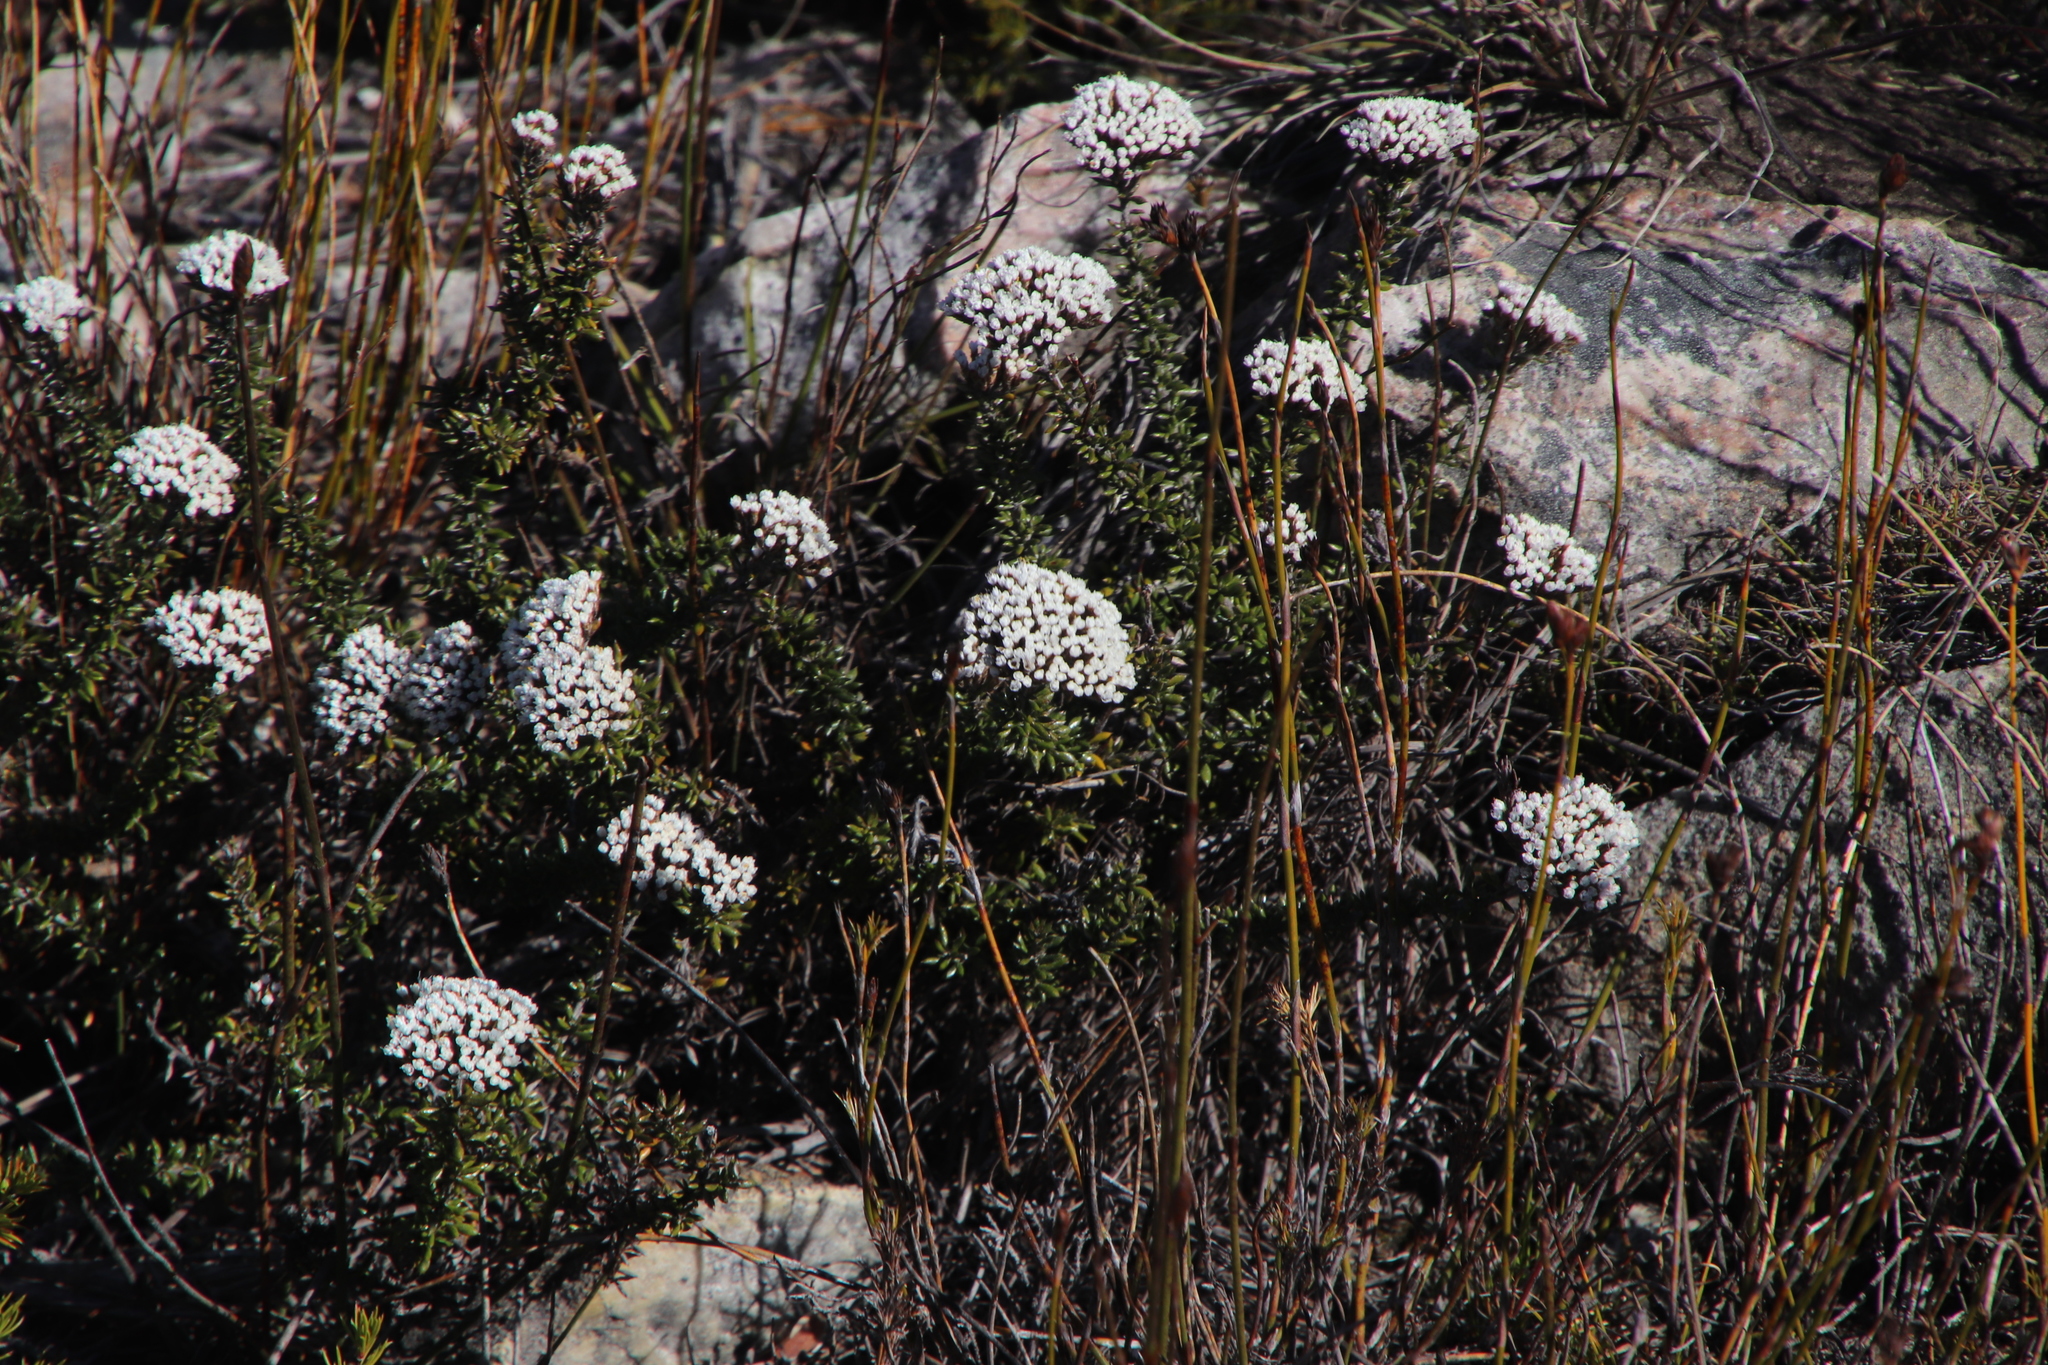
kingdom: Plantae
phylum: Tracheophyta
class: Magnoliopsida
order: Asterales
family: Asteraceae
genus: Metalasia
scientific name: Metalasia montana
